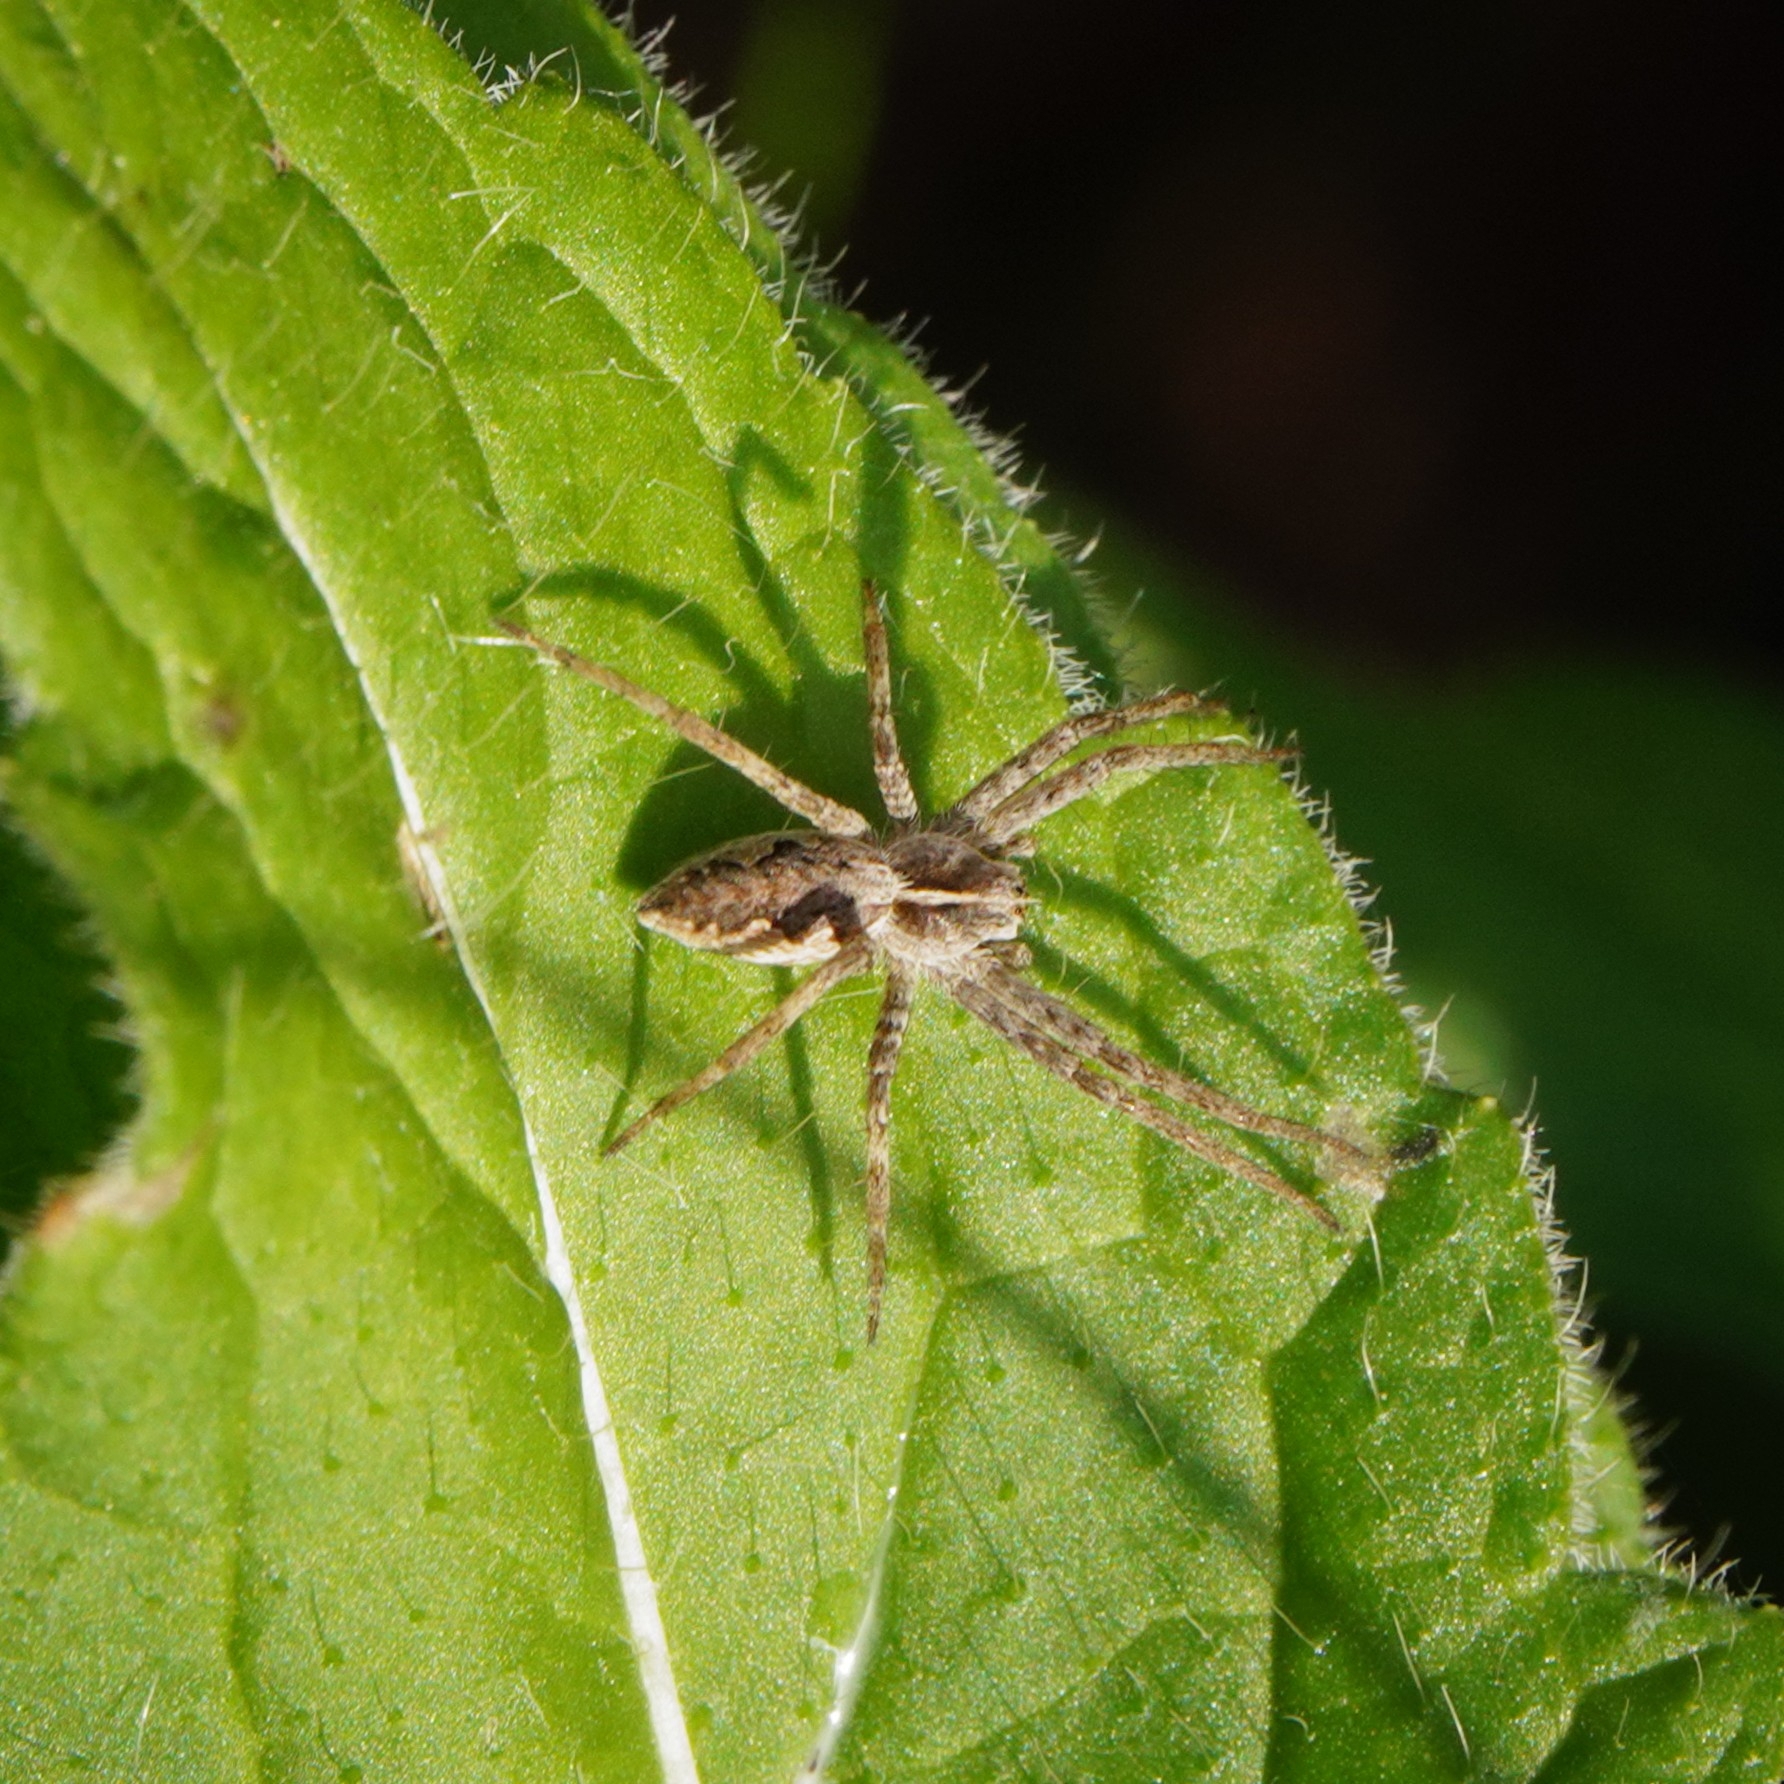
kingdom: Animalia
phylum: Arthropoda
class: Arachnida
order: Araneae
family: Pisauridae
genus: Pisaura
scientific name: Pisaura mirabilis
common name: Tent spider
